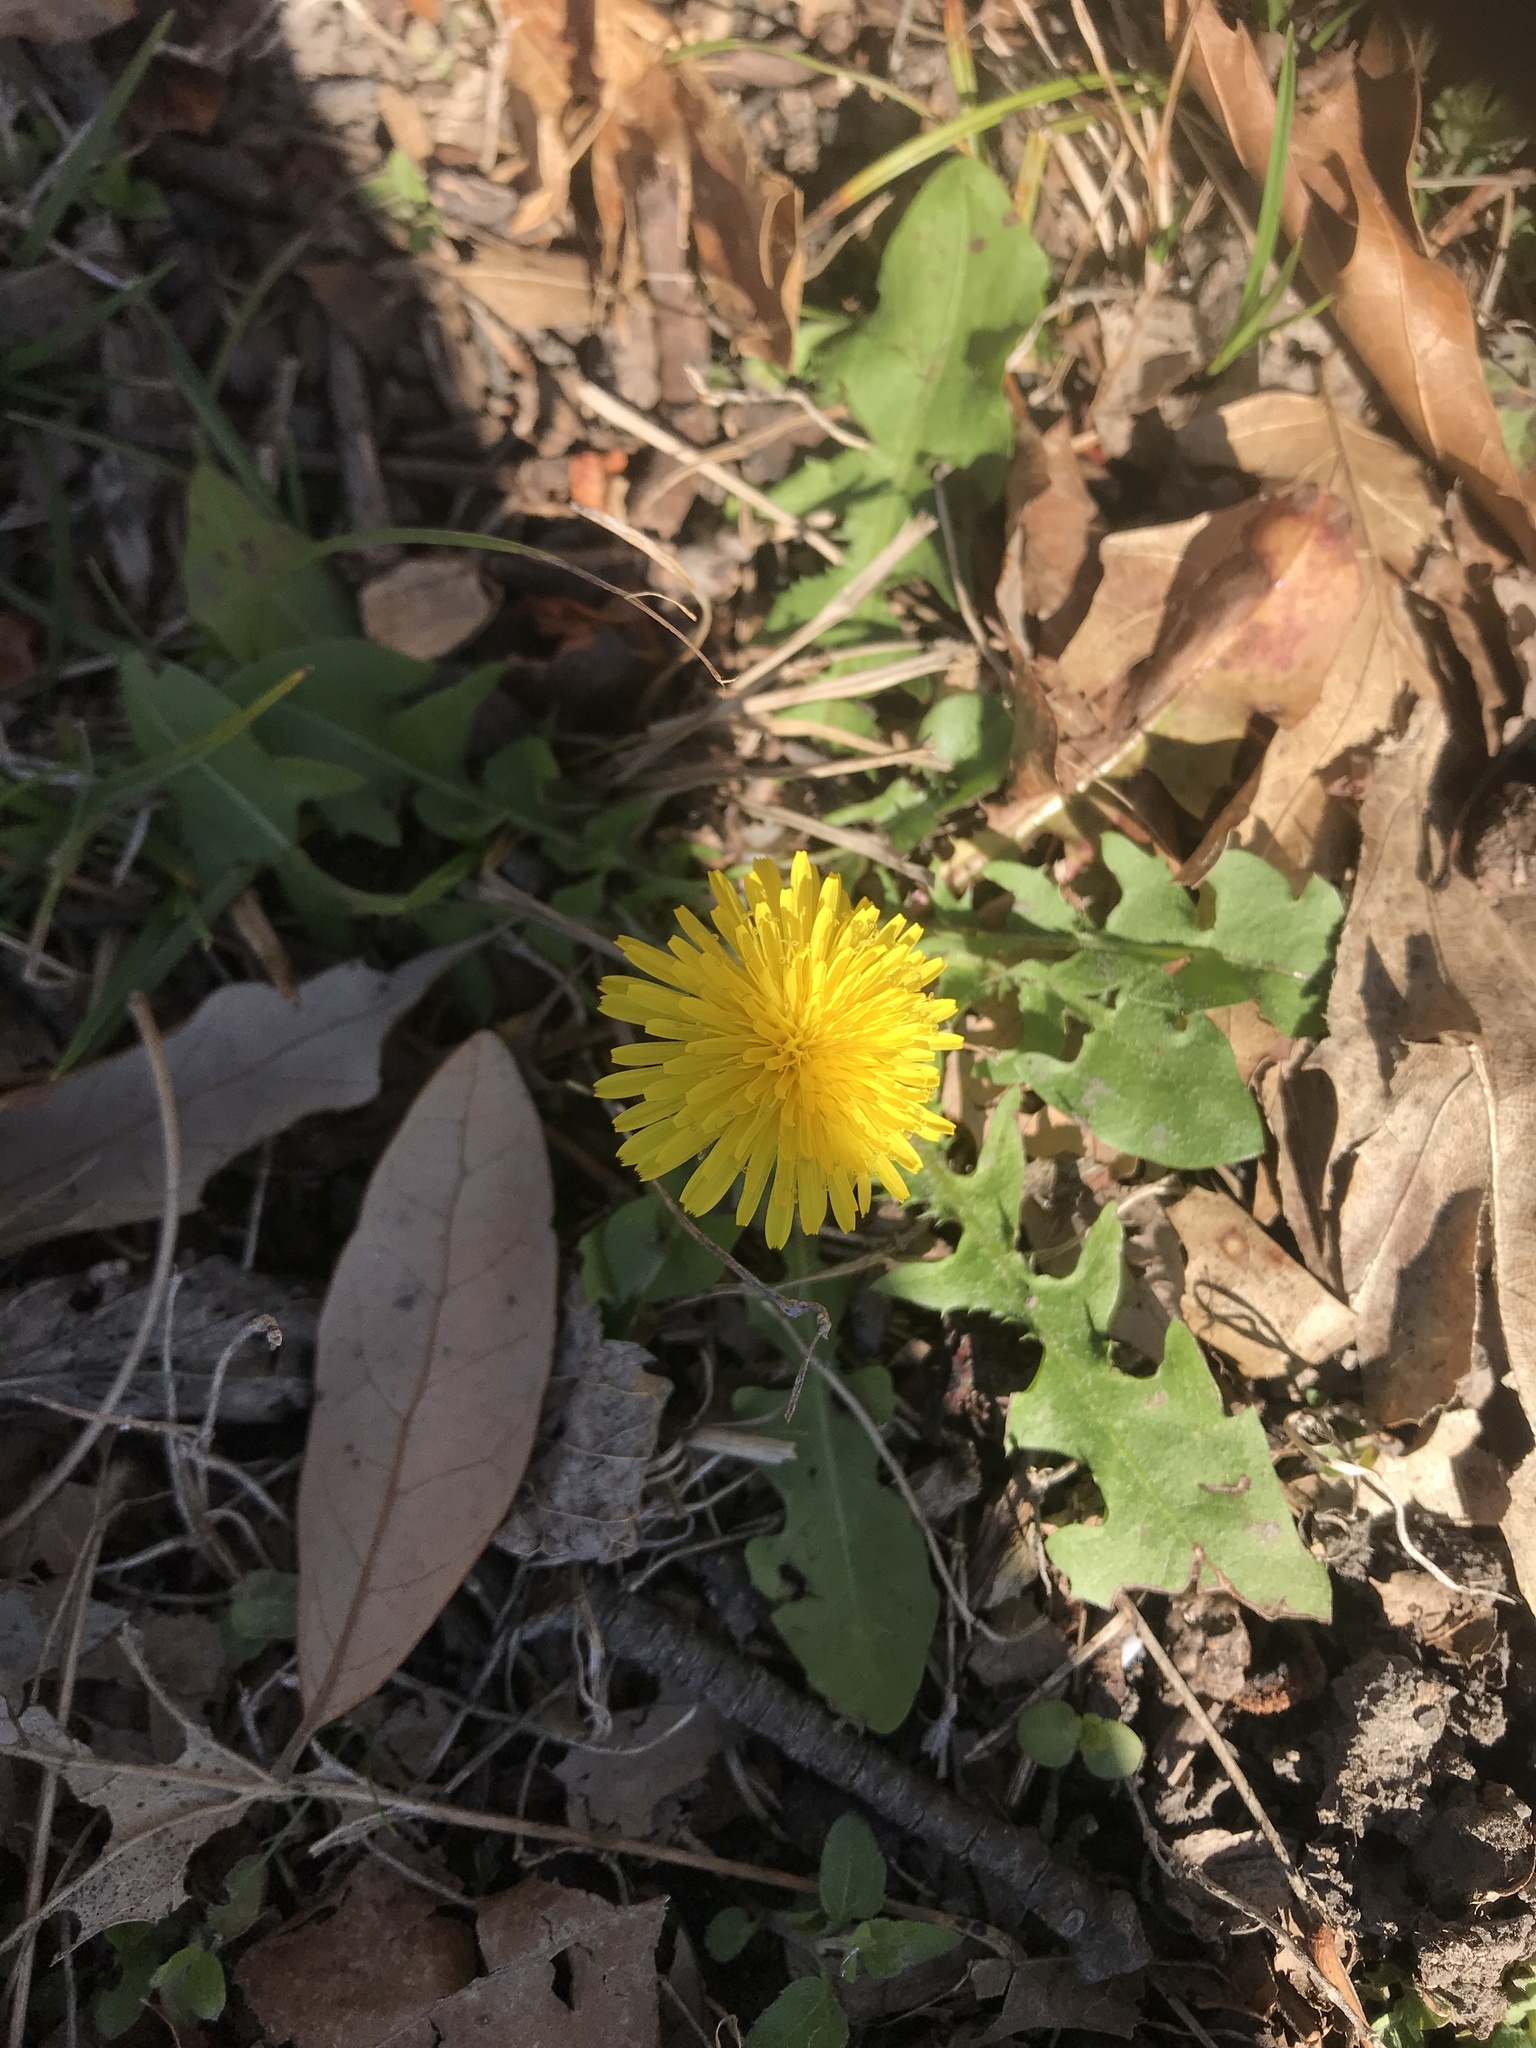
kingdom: Plantae
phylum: Tracheophyta
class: Magnoliopsida
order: Asterales
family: Asteraceae
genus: Taraxacum
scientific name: Taraxacum officinale
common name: Common dandelion
